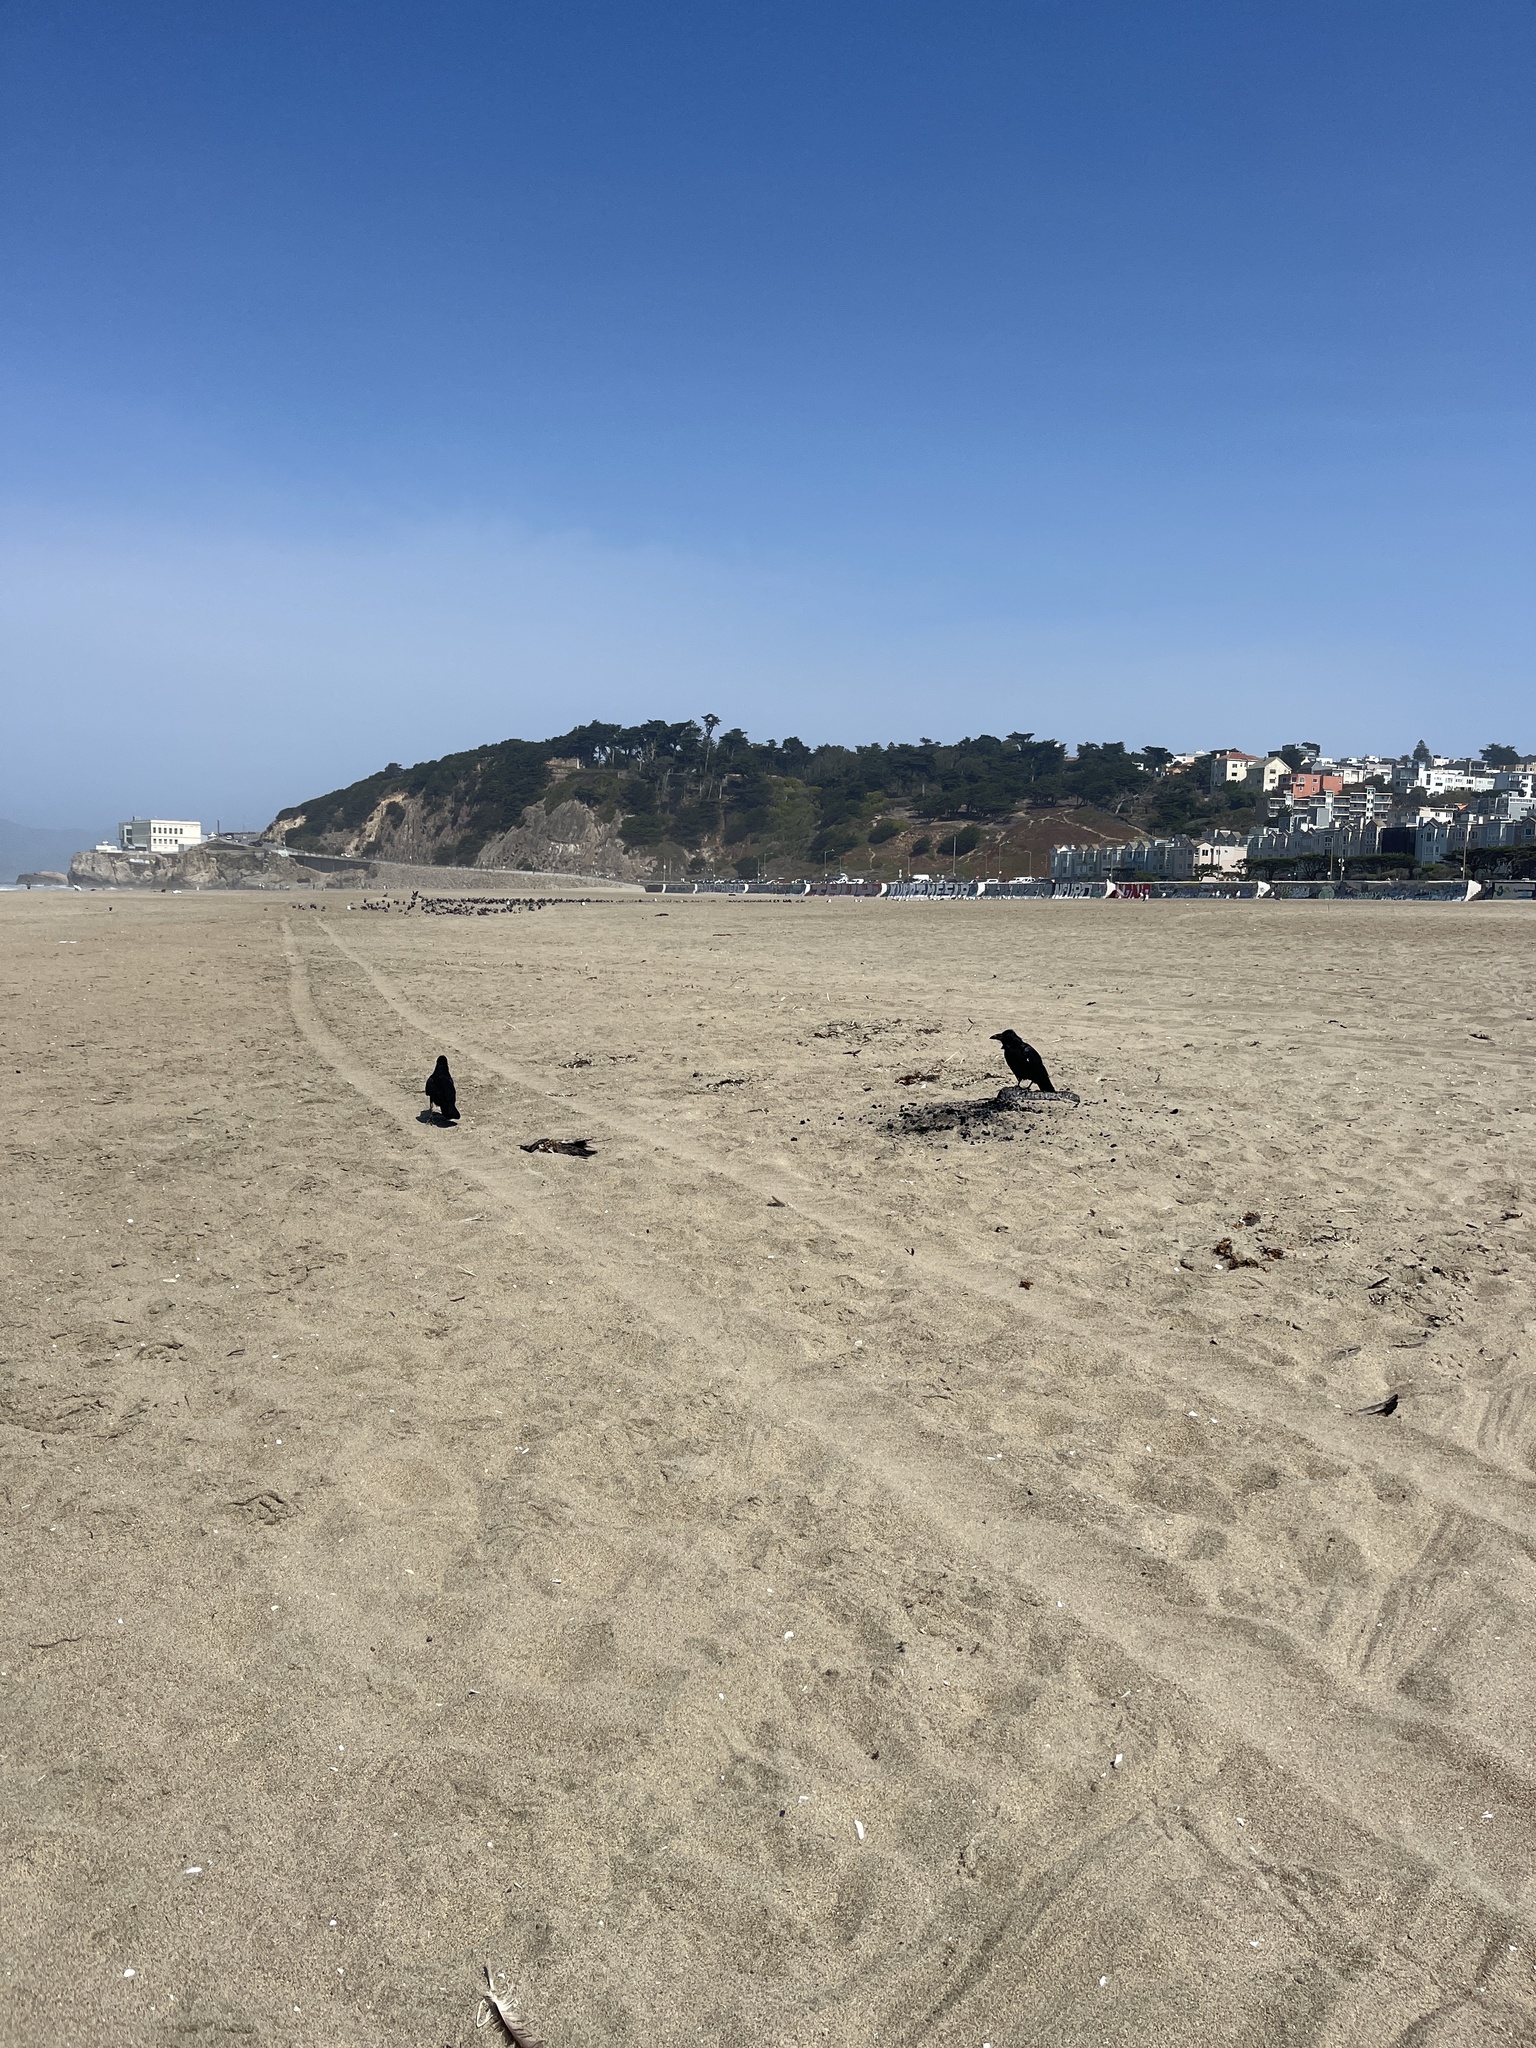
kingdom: Animalia
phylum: Chordata
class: Aves
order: Passeriformes
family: Corvidae
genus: Corvus
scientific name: Corvus corax
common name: Common raven
